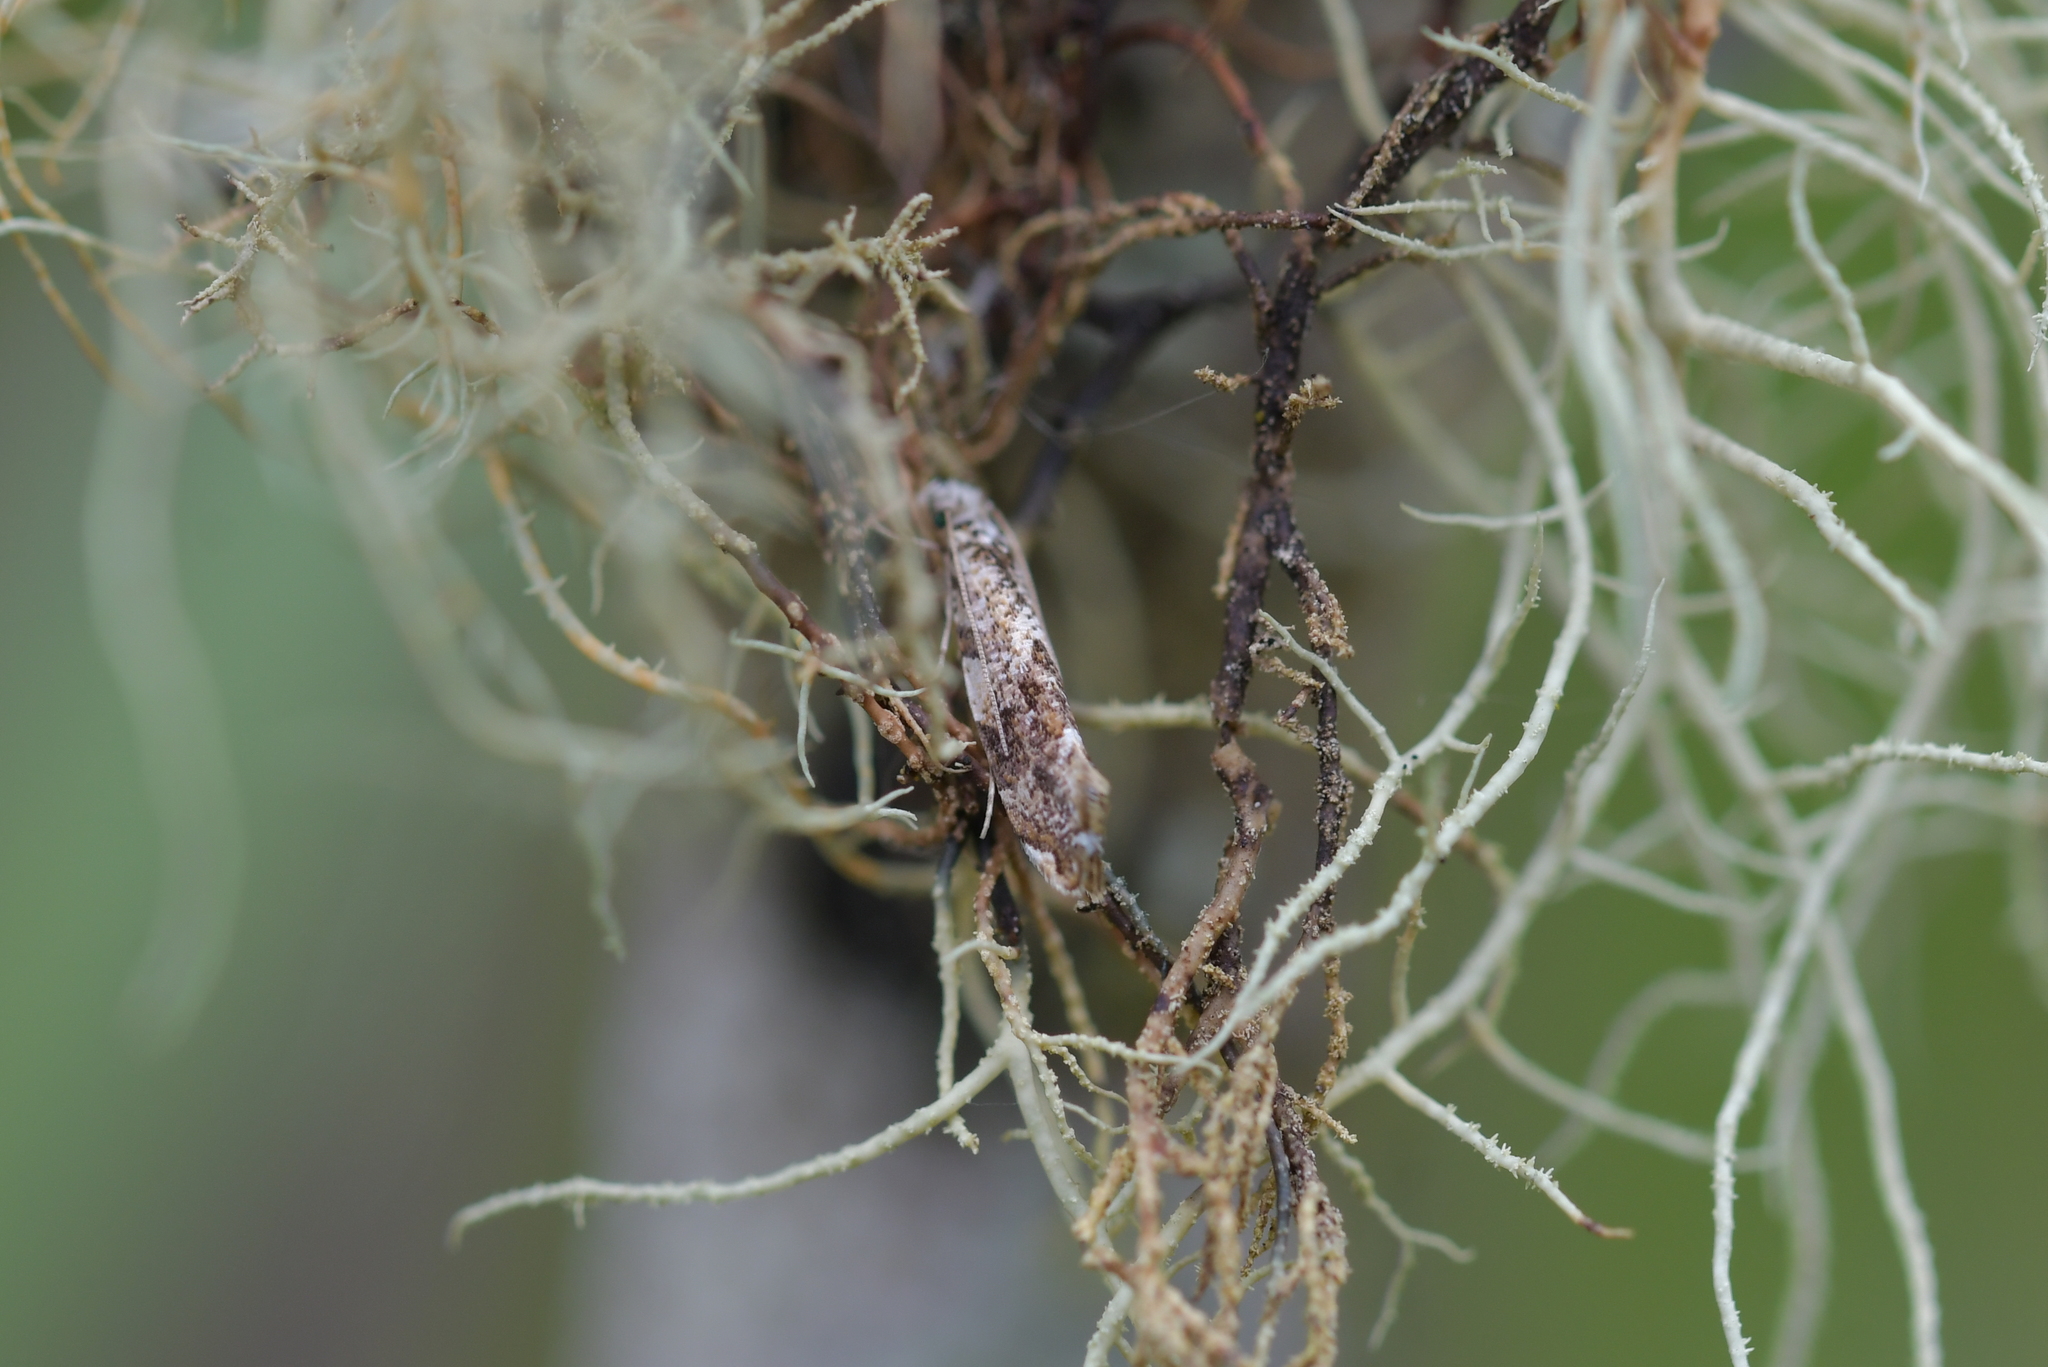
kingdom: Animalia
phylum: Arthropoda
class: Insecta
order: Lepidoptera
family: Tineidae
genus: Eschatotypa
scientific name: Eschatotypa derogatella
